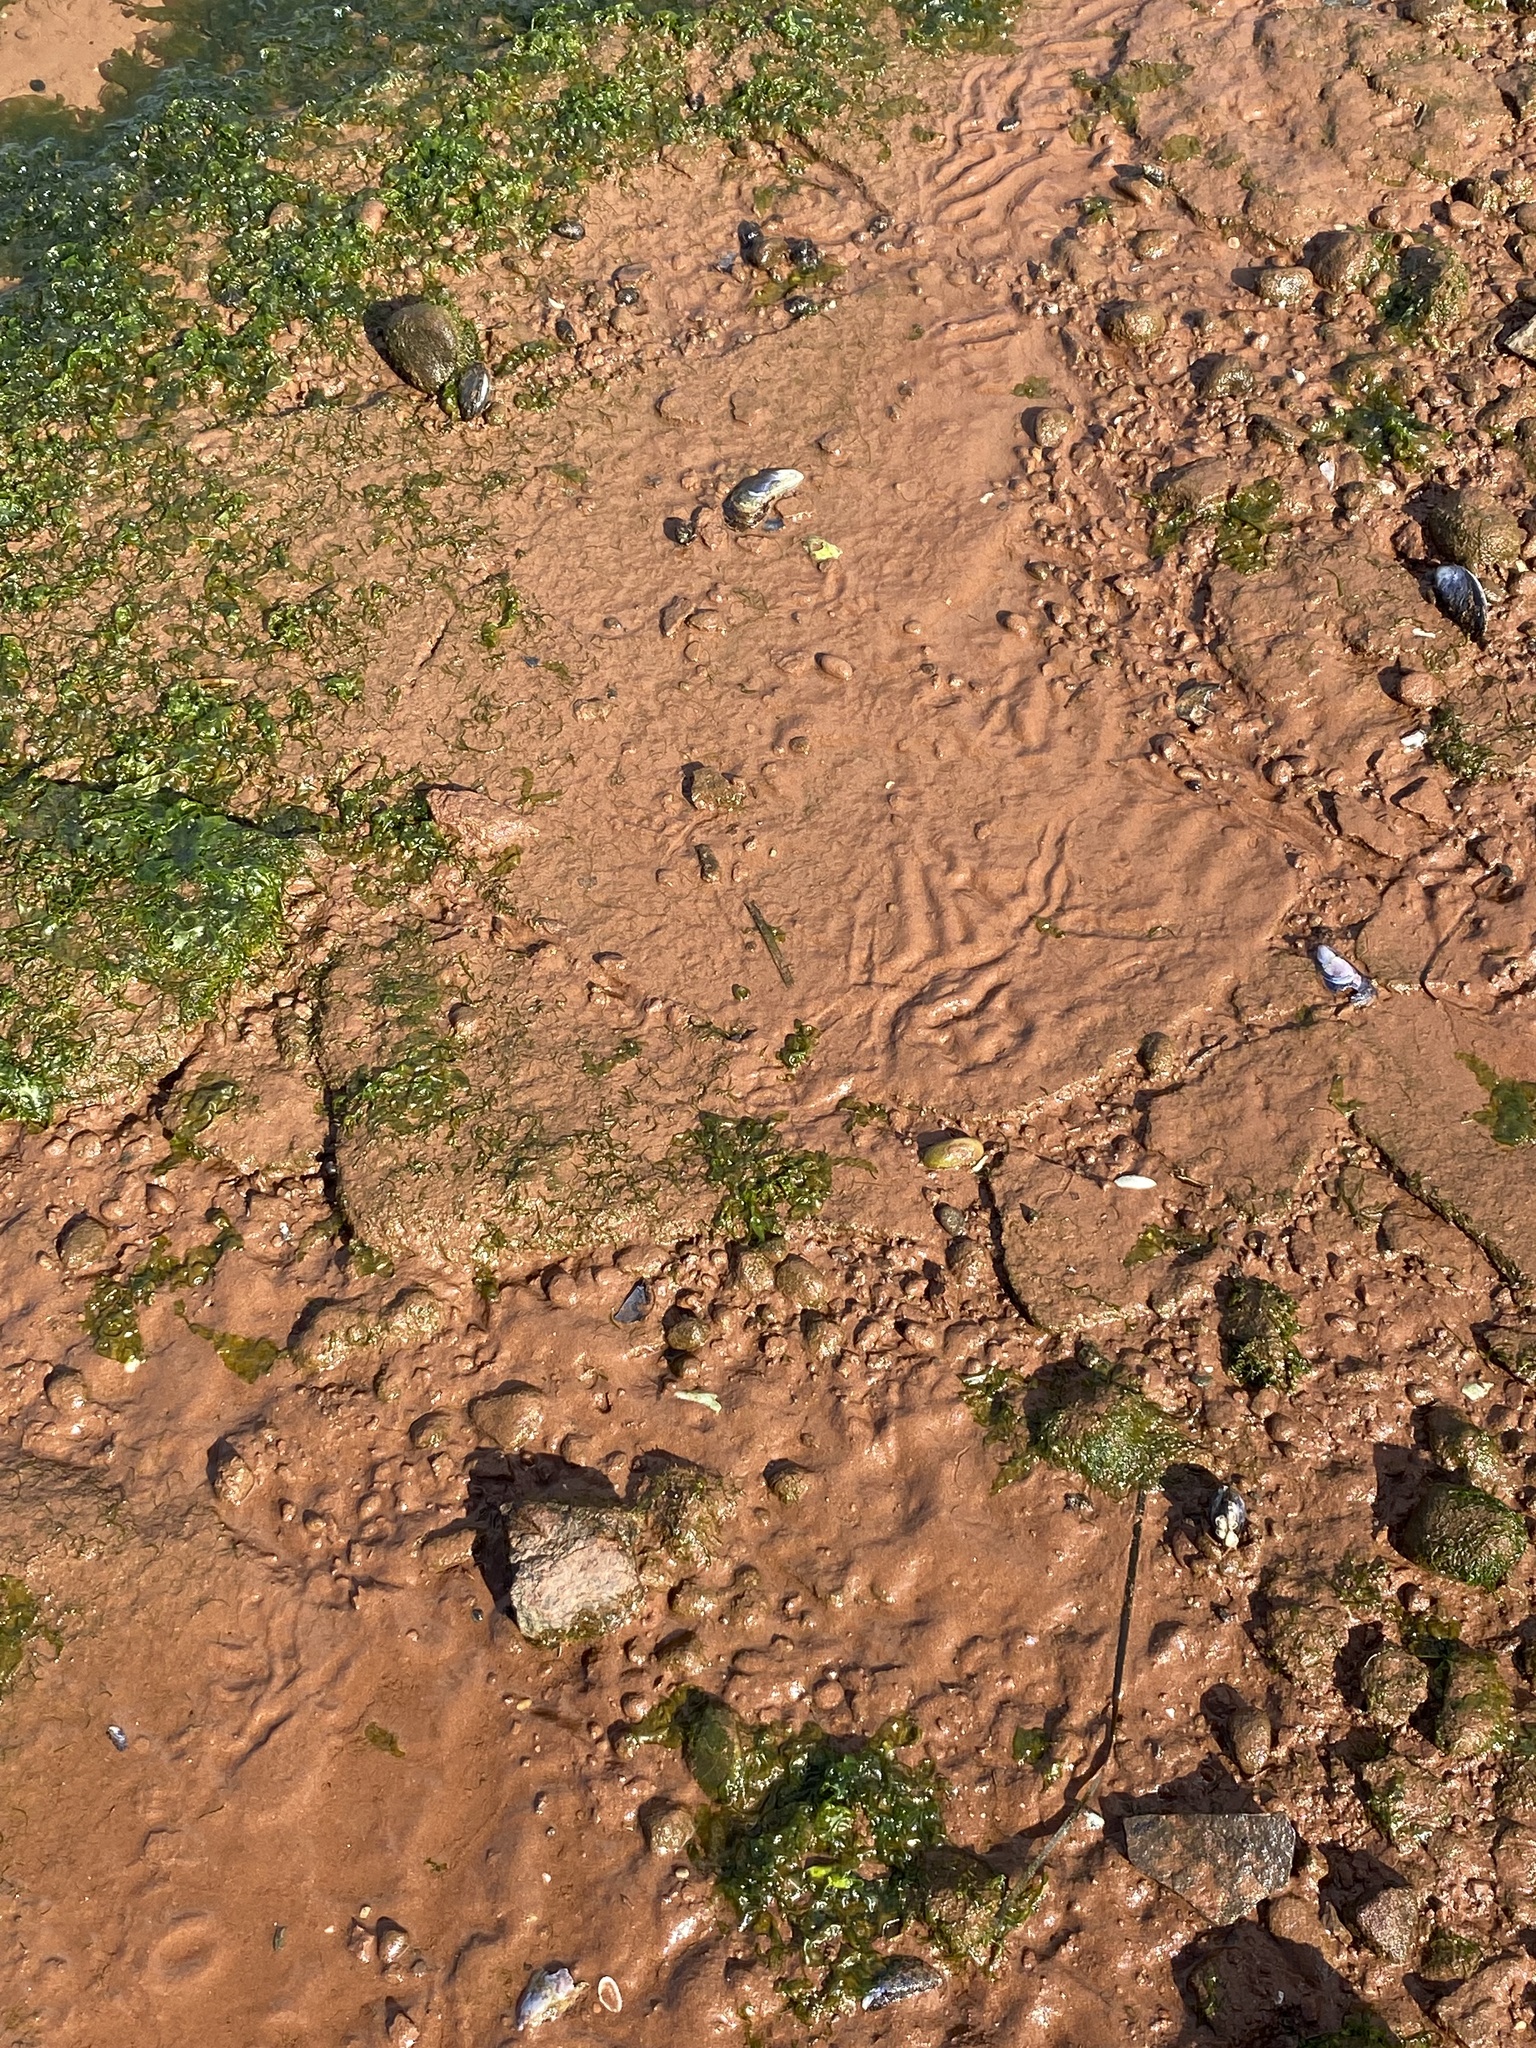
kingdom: Animalia
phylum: Mollusca
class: Gastropoda
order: Littorinimorpha
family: Littorinidae
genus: Littorina
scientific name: Littorina littorea
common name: Common periwinkle
